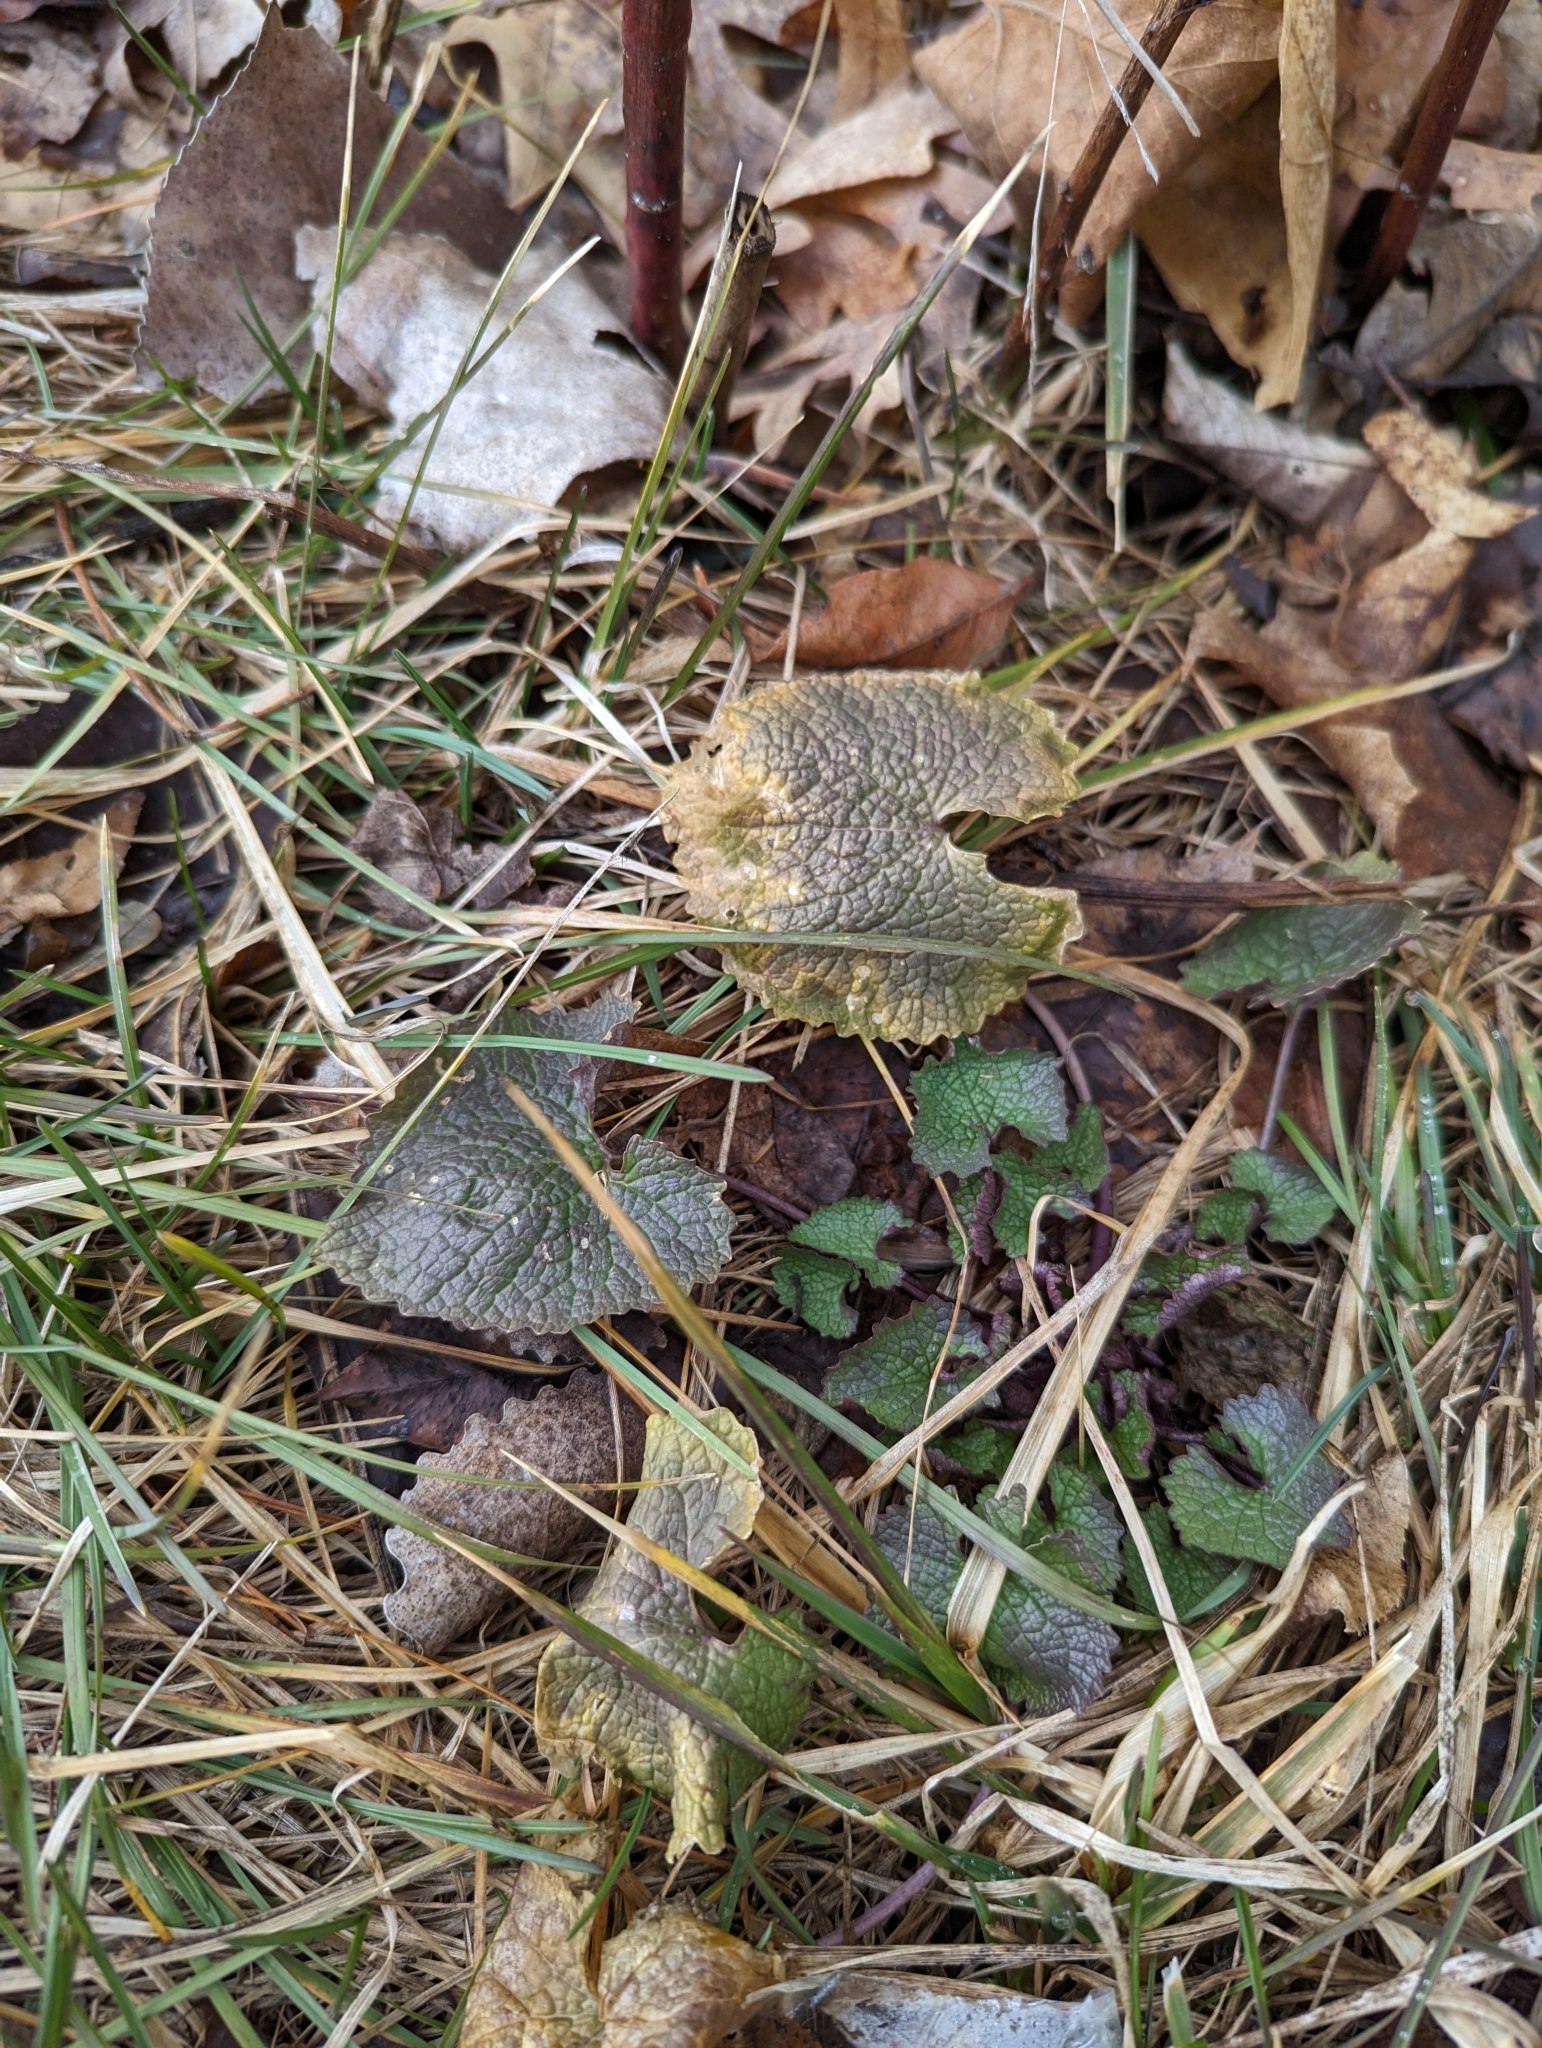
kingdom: Plantae
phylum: Tracheophyta
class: Magnoliopsida
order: Brassicales
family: Brassicaceae
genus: Alliaria
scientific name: Alliaria petiolata
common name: Garlic mustard
